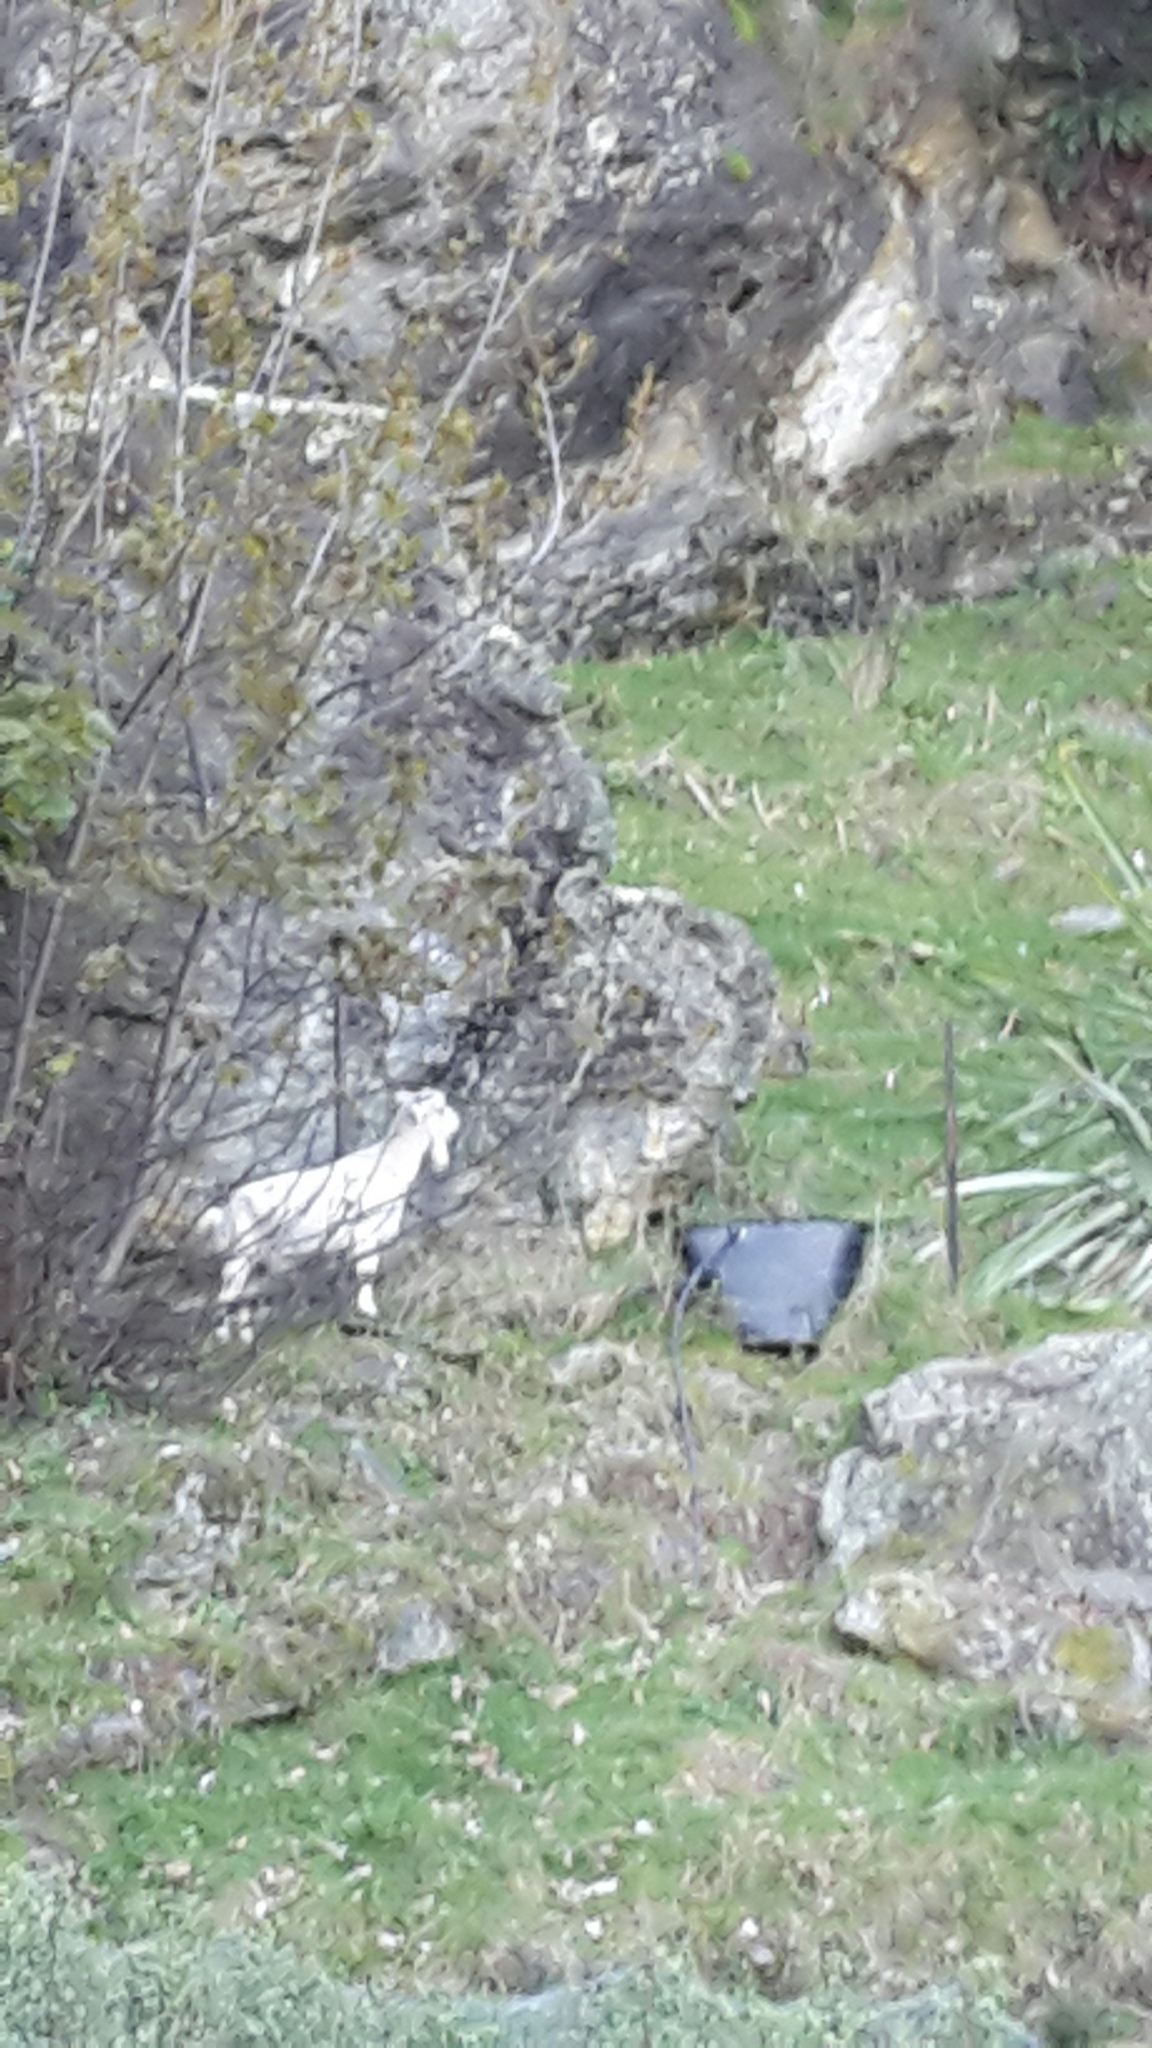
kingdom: Animalia
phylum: Chordata
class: Mammalia
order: Artiodactyla
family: Bovidae
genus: Capra
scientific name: Capra hircus
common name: Domestic goat
